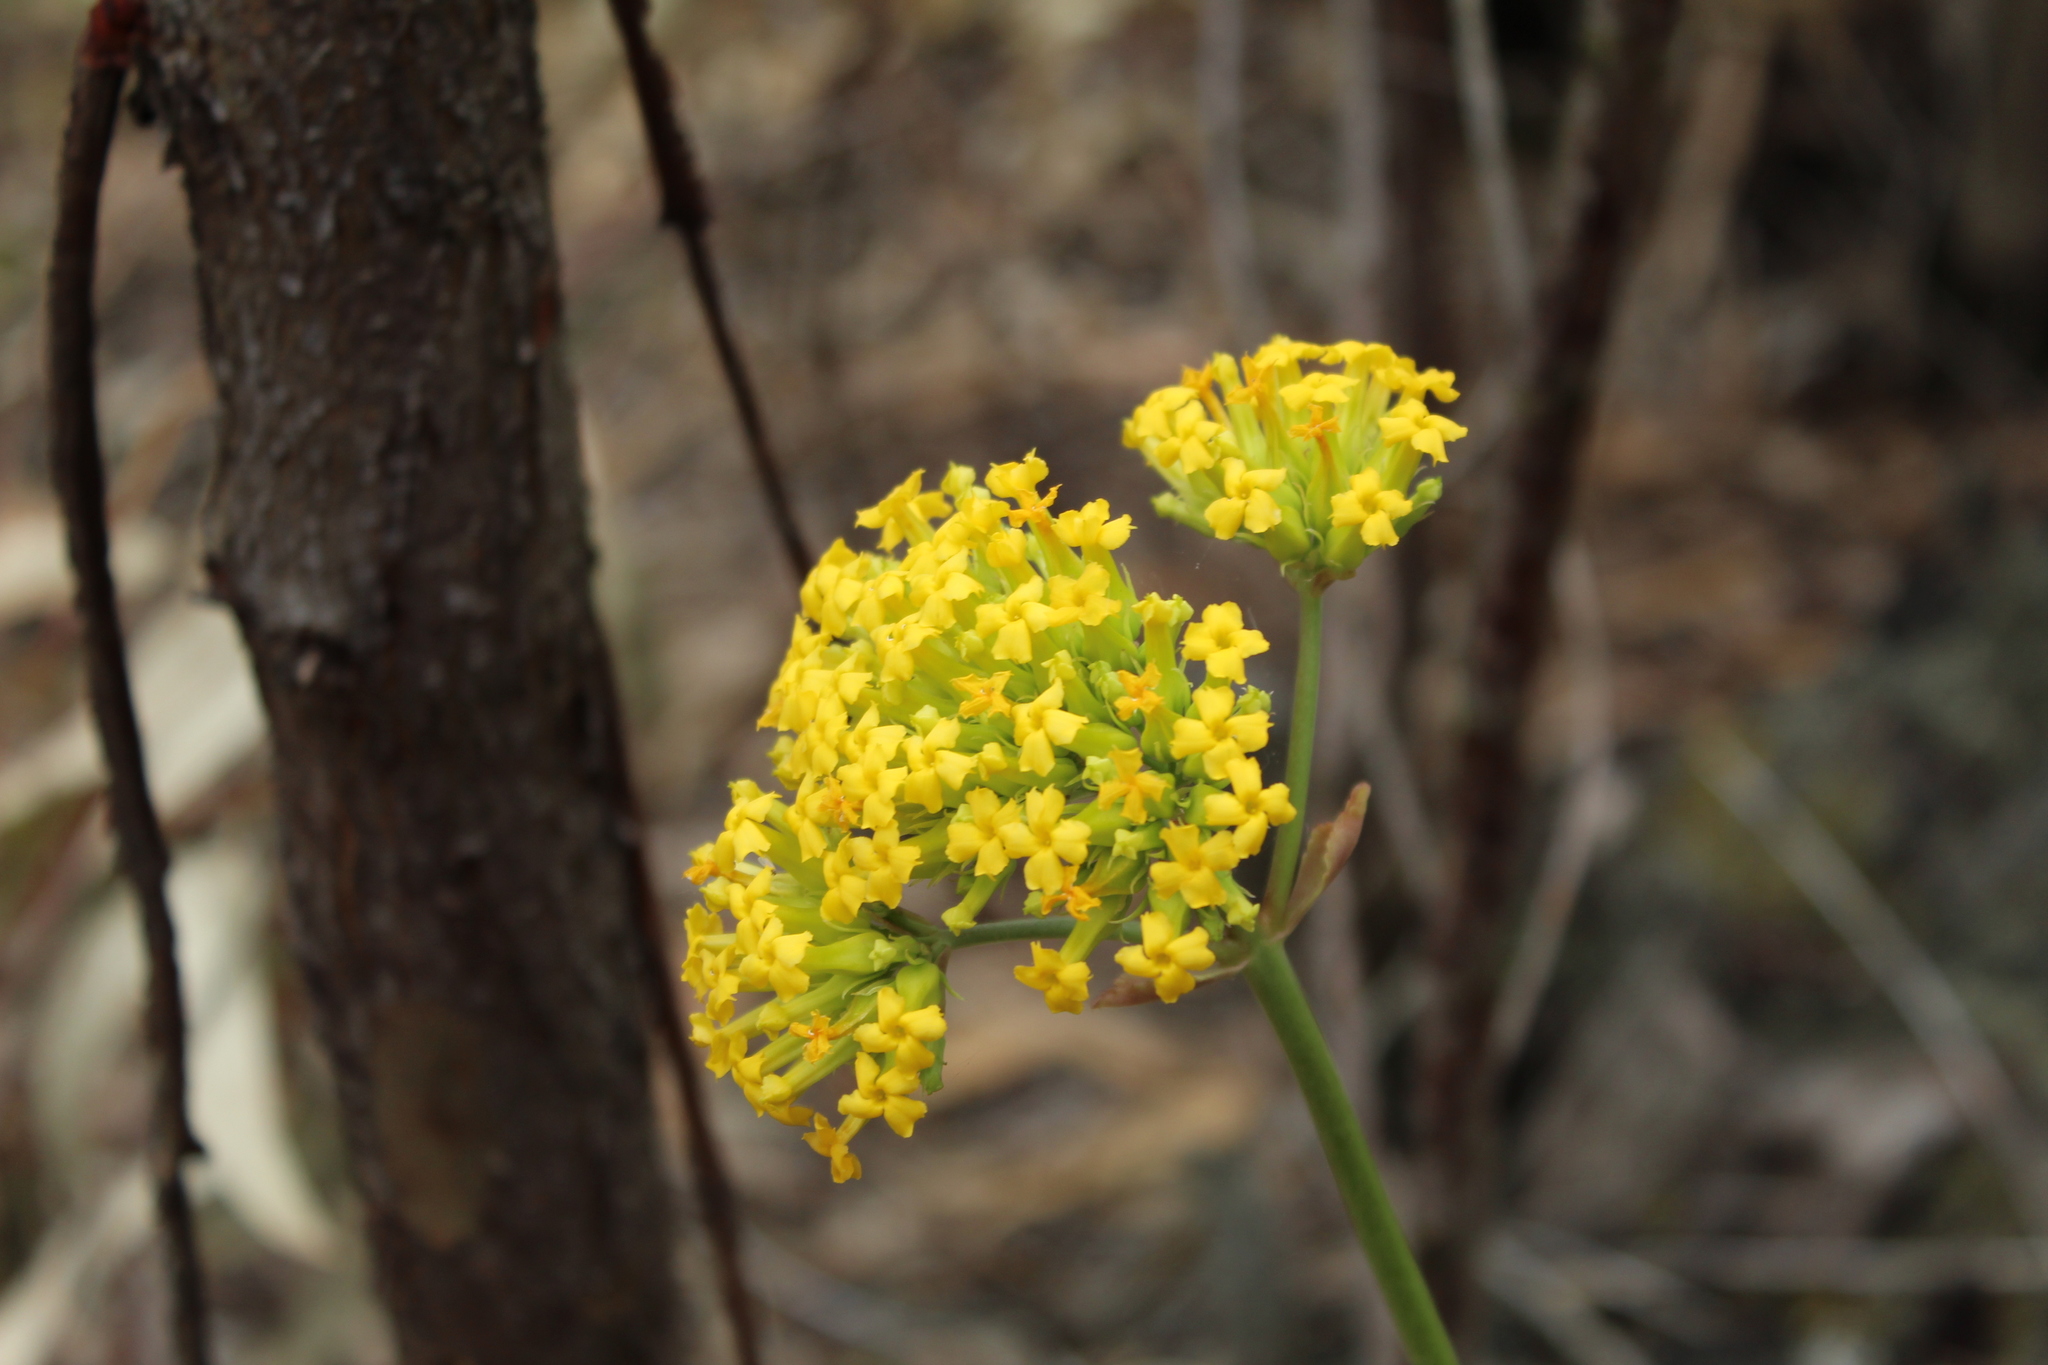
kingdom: Plantae
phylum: Tracheophyta
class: Magnoliopsida
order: Saxifragales
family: Crassulaceae
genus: Kalanchoe
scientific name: Kalanchoe densiflora
